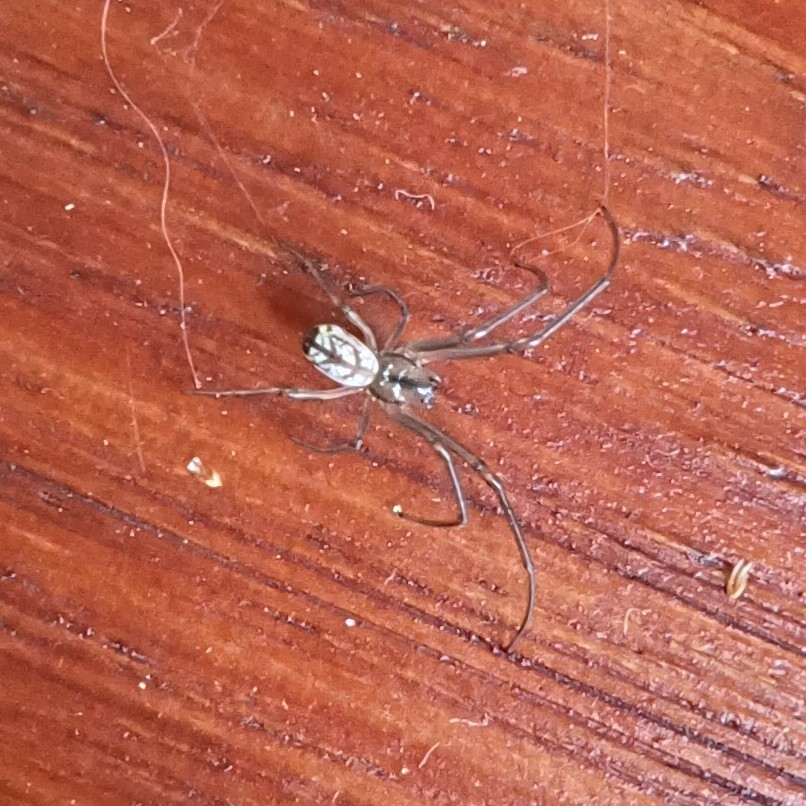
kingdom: Animalia
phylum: Arthropoda
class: Arachnida
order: Araneae
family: Tetragnathidae
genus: Leucauge
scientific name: Leucauge volupis
